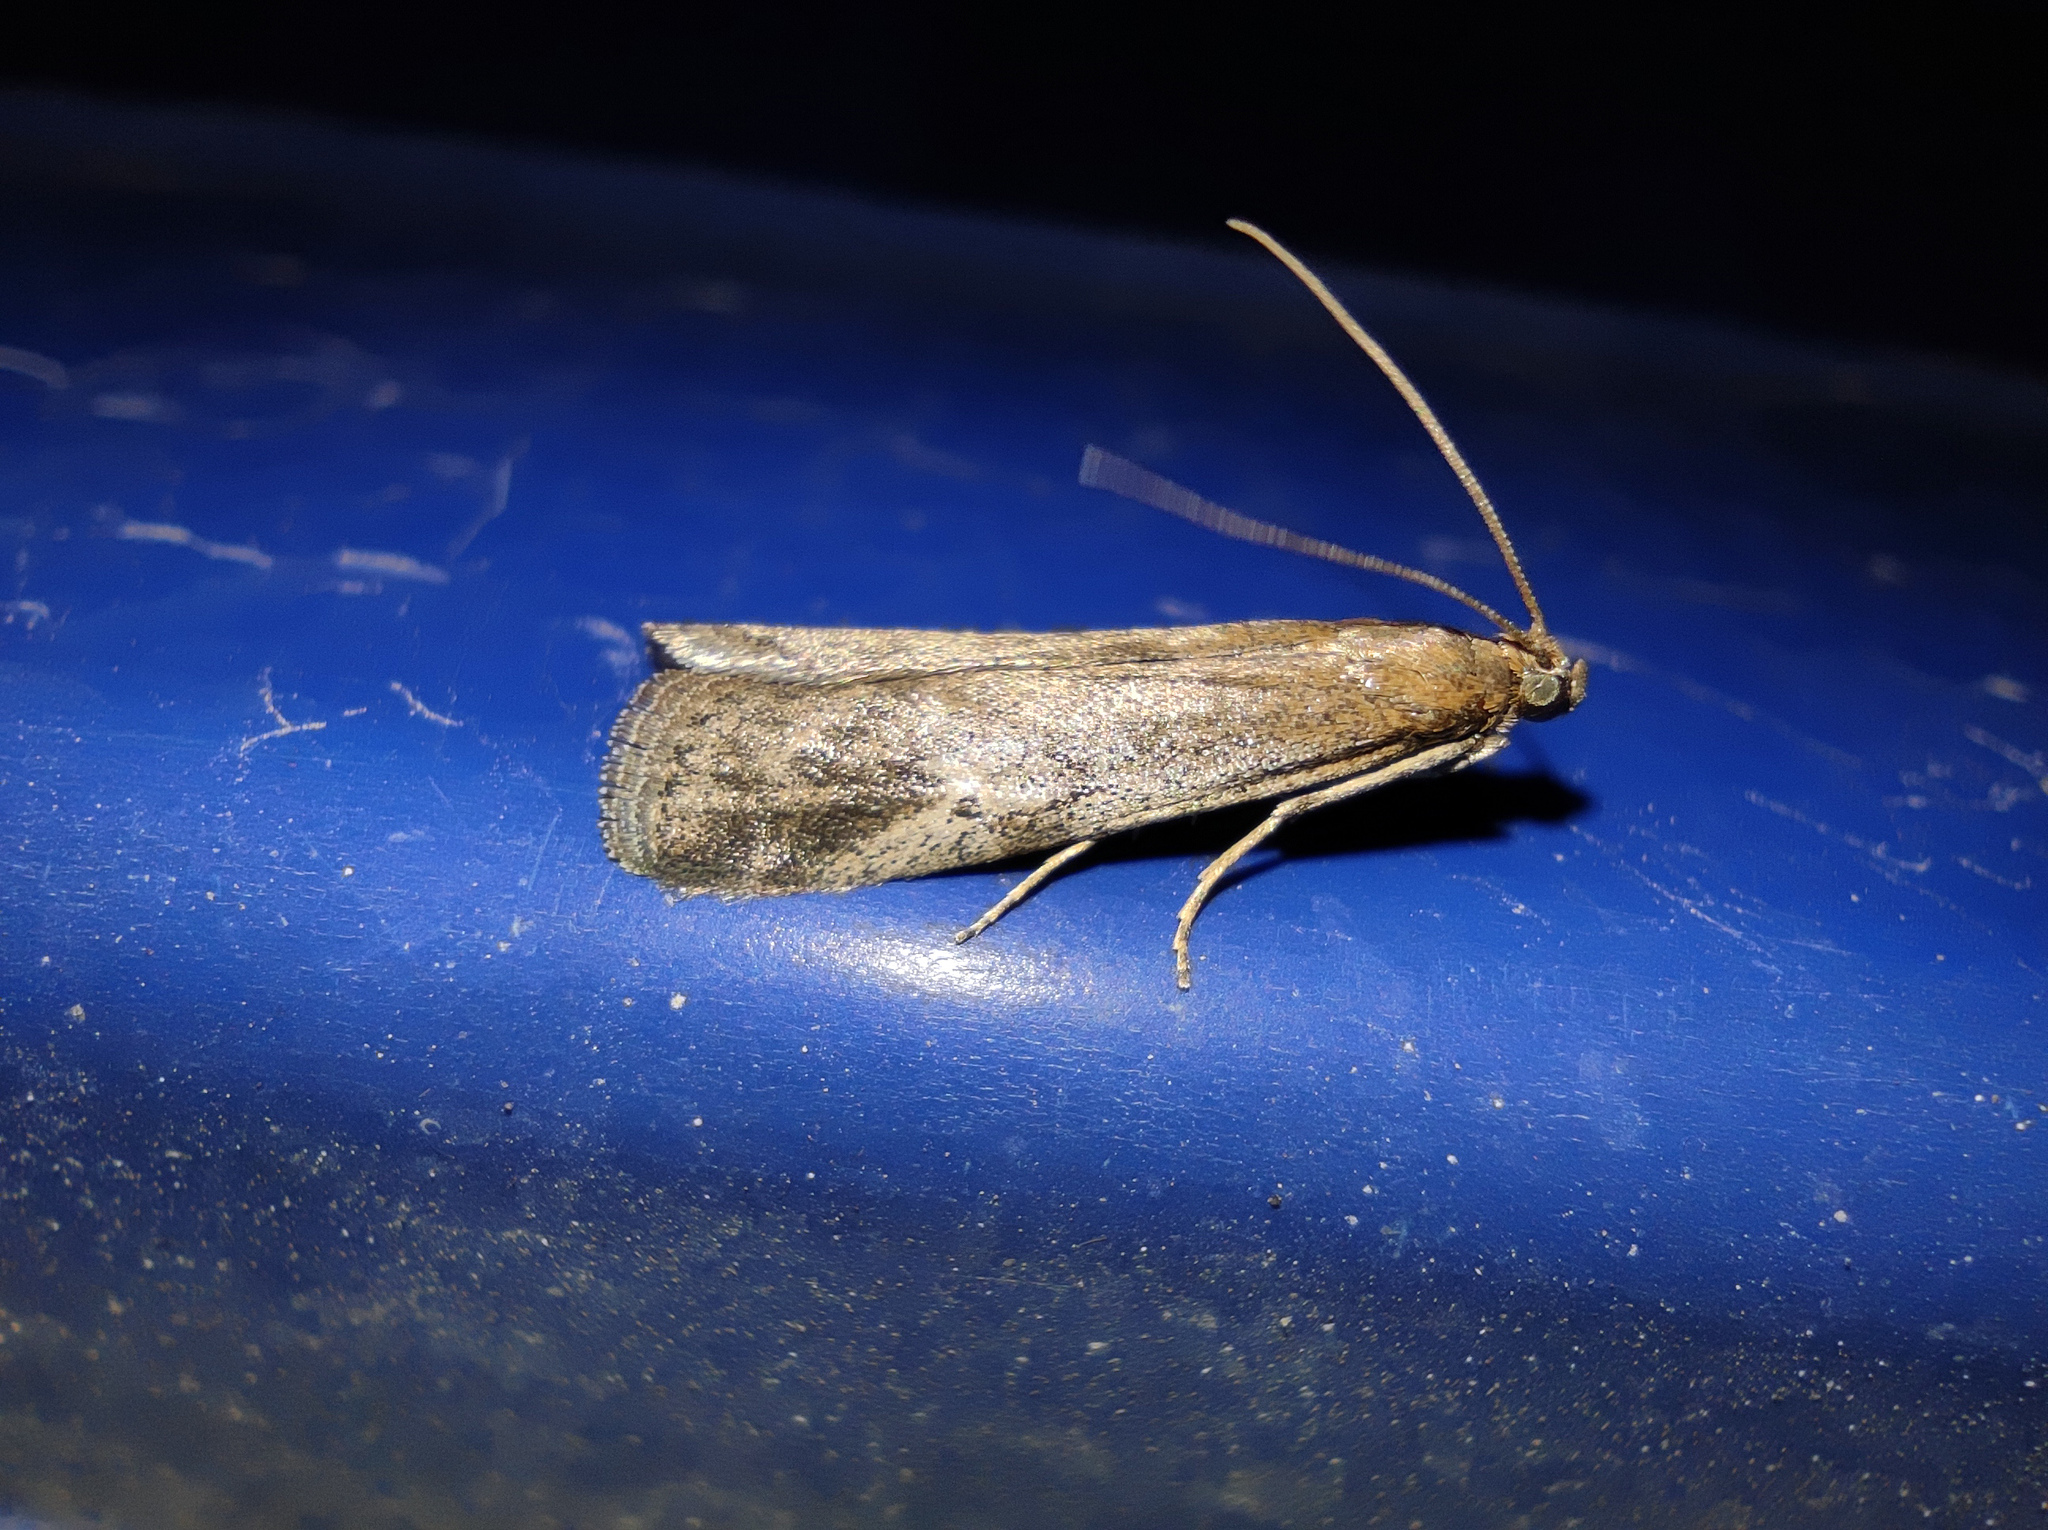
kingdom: Animalia
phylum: Arthropoda
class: Insecta
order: Lepidoptera
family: Pyralidae
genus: Euzophera
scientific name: Euzophera cinerosella
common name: Wormwood knot-horn
